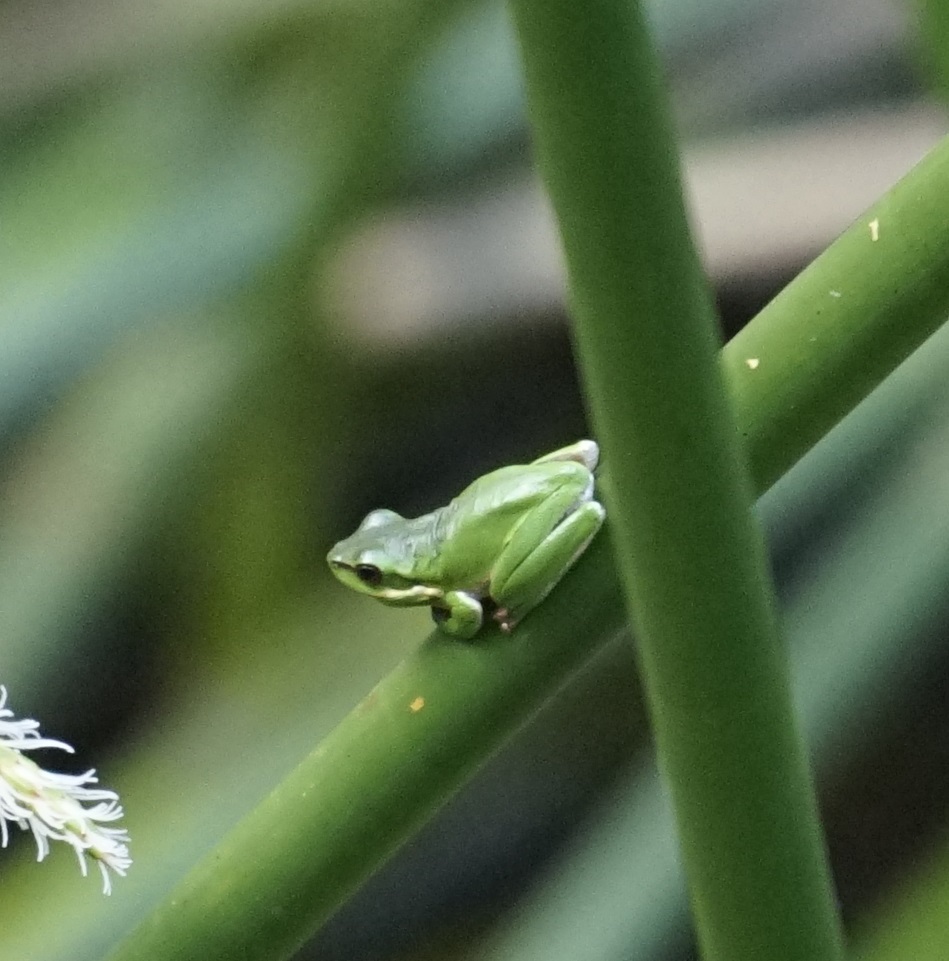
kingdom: Animalia
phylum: Chordata
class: Amphibia
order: Anura
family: Pelodryadidae
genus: Litoria
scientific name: Litoria fallax
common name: Eastern dwarf treefrog
